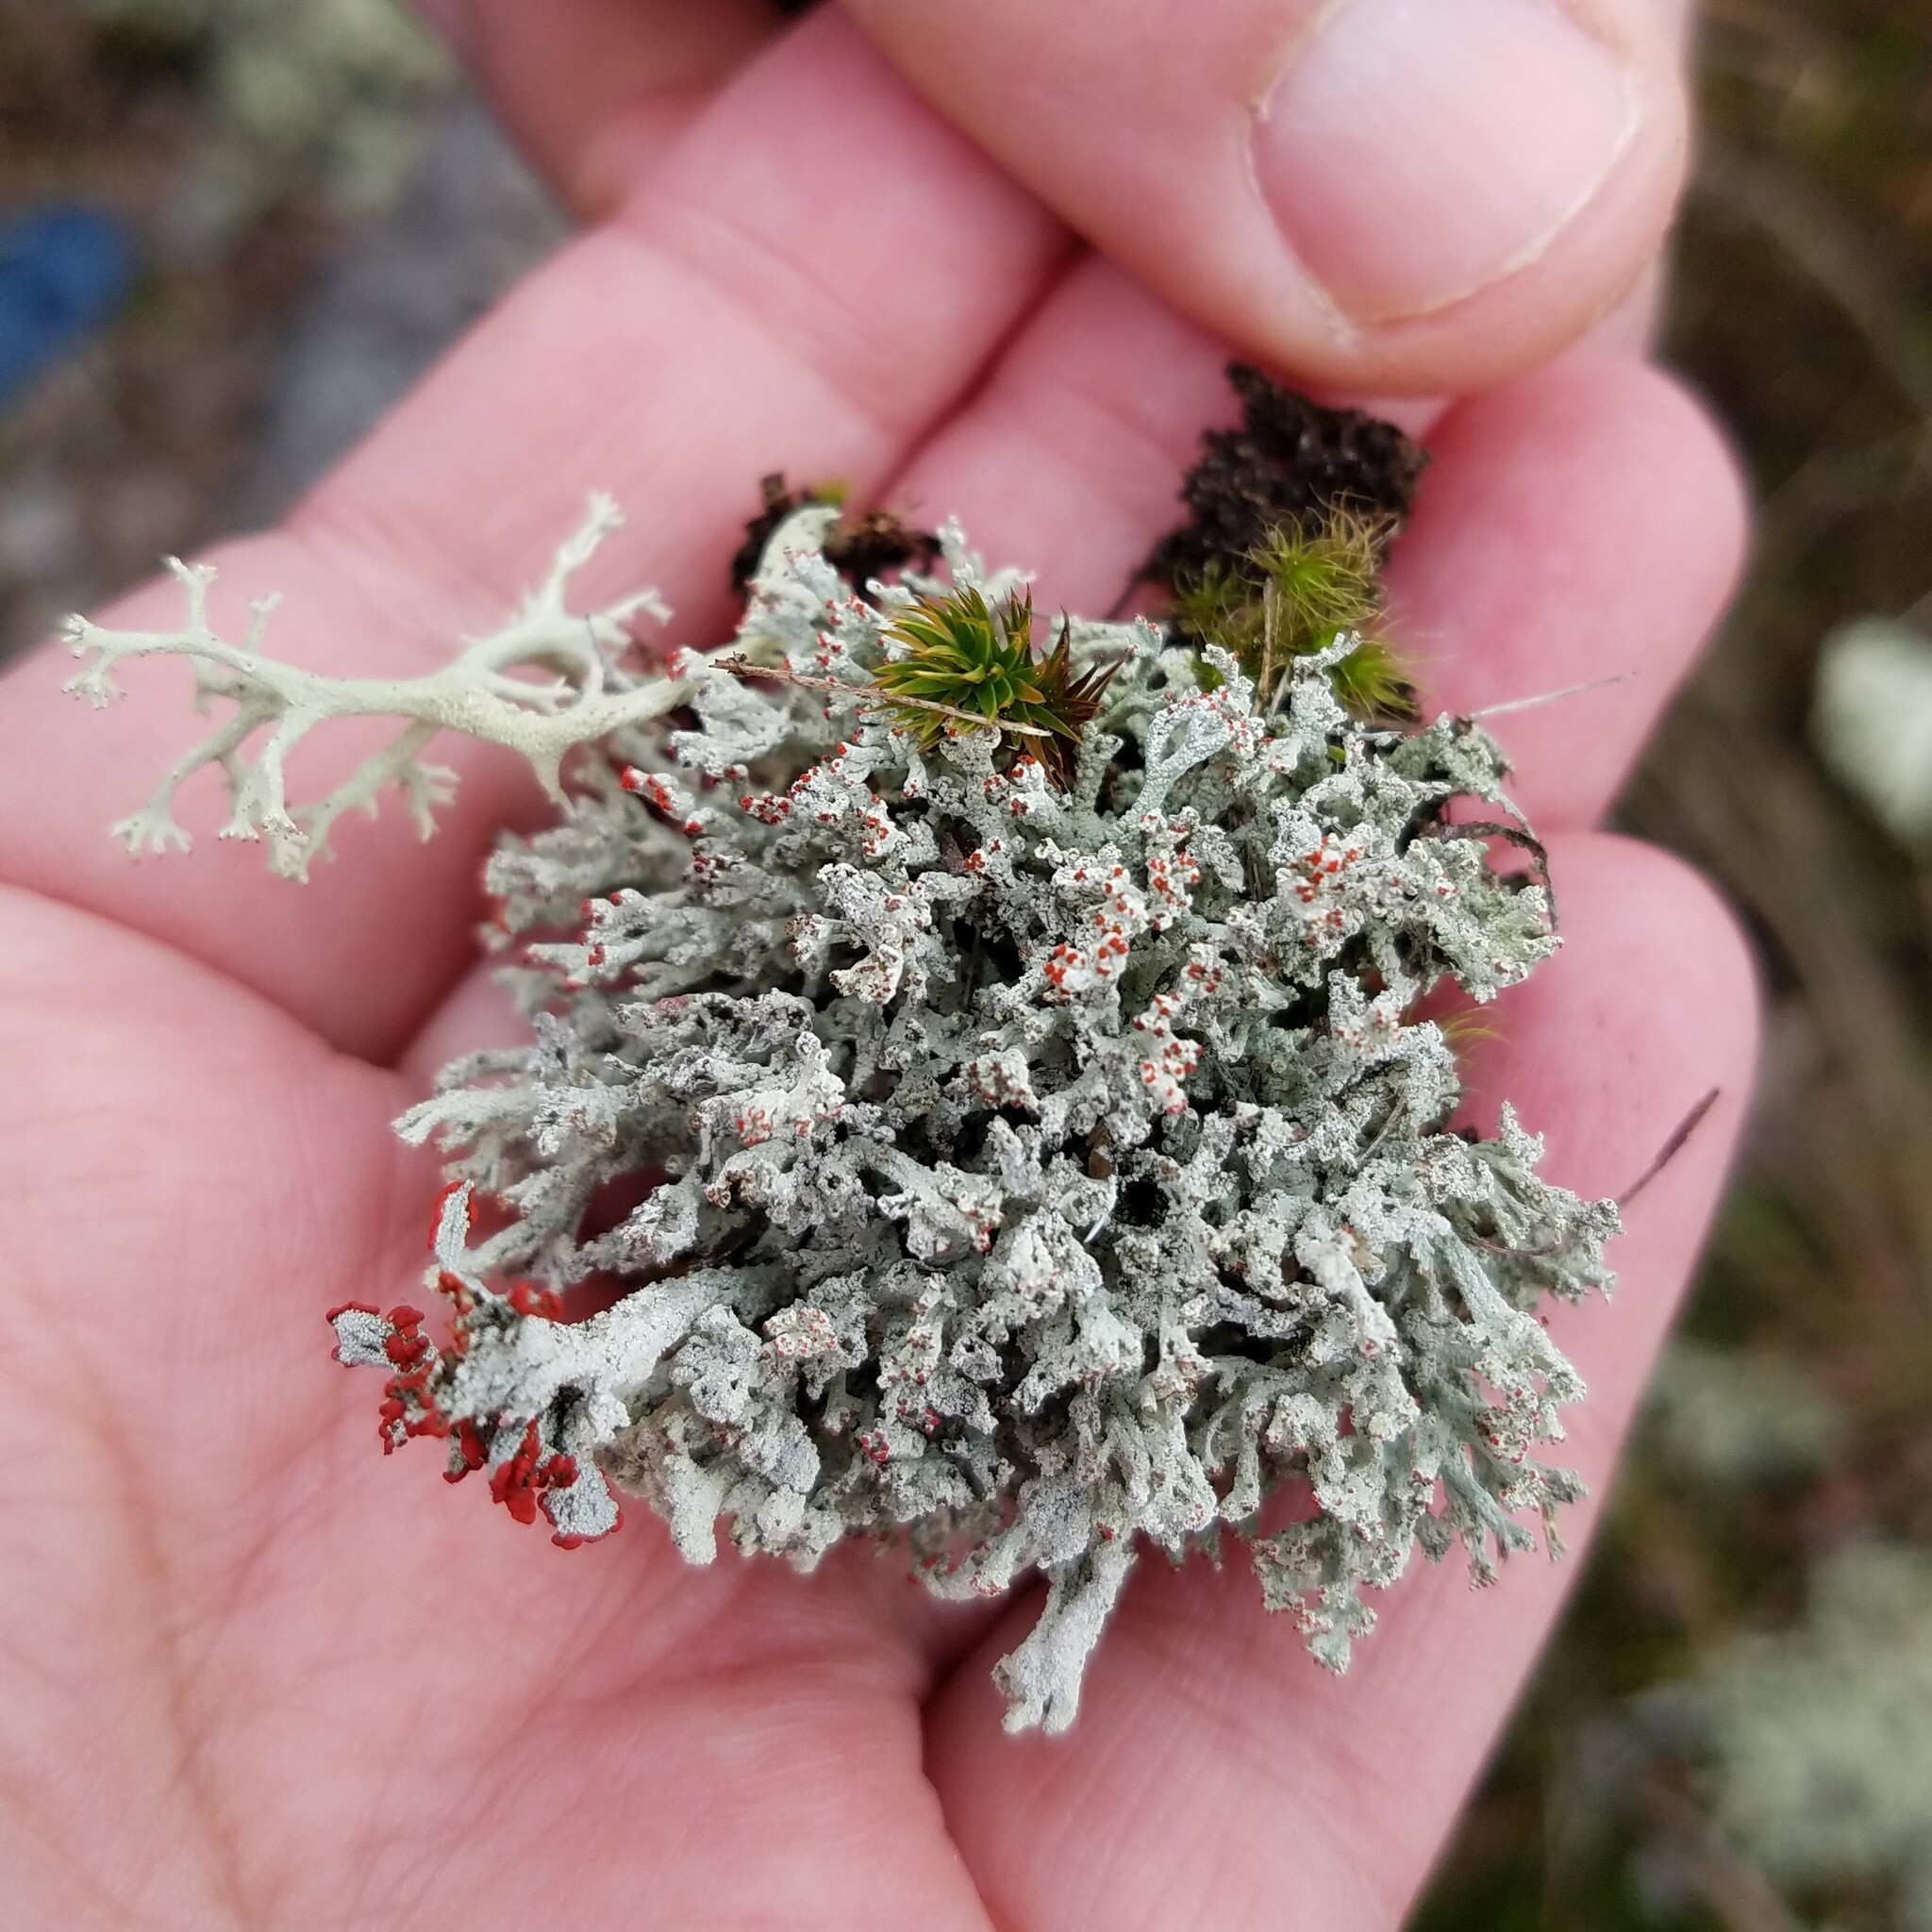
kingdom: Fungi
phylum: Ascomycota
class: Lecanoromycetes
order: Lecanorales
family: Cladoniaceae
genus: Cladonia
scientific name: Cladonia floerkeana
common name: Gritty british soldiers lichen
